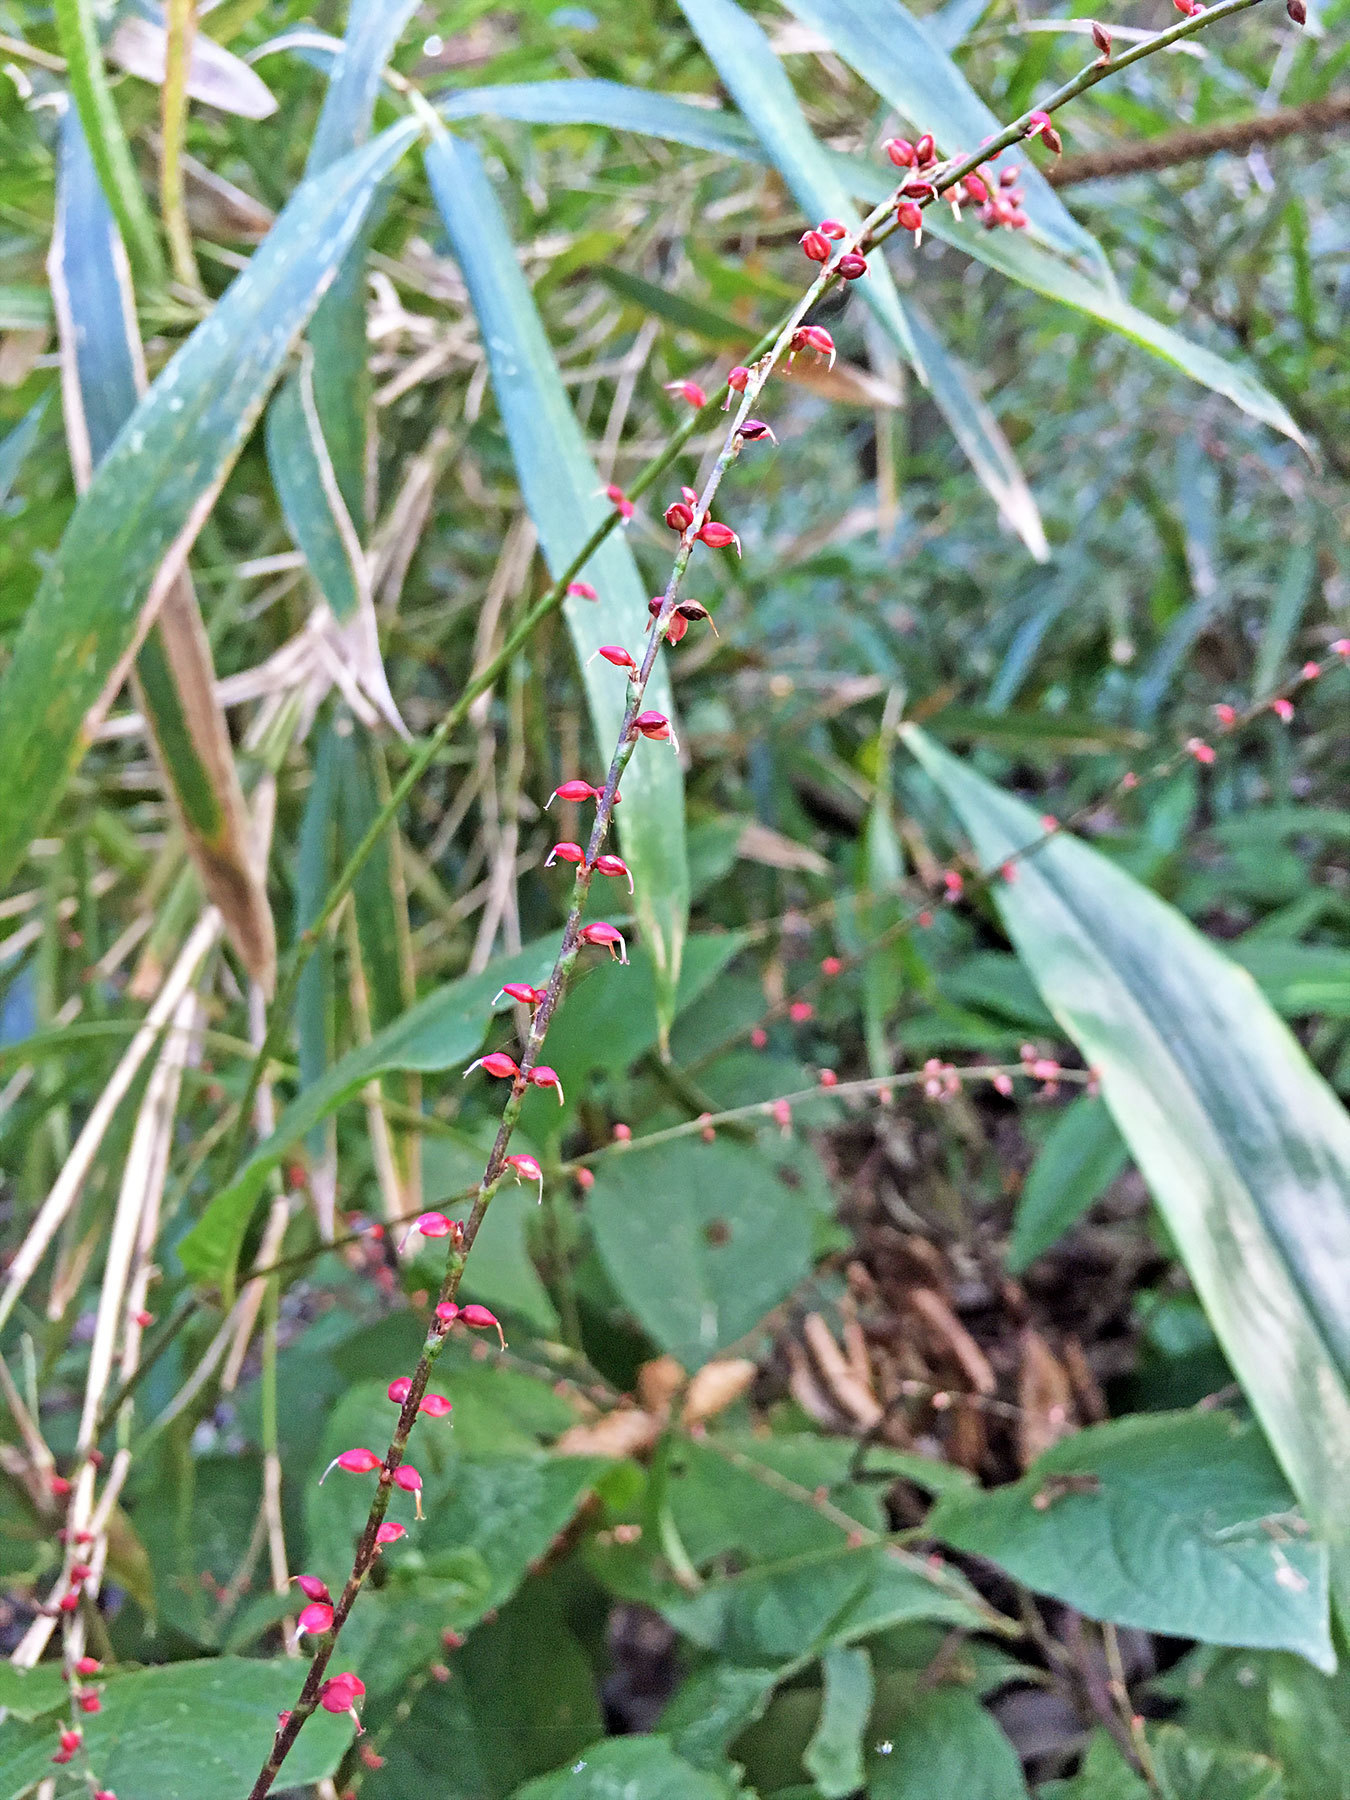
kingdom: Plantae
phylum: Tracheophyta
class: Magnoliopsida
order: Caryophyllales
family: Polygonaceae
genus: Persicaria
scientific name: Persicaria filiformis
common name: Asian jumpseed
